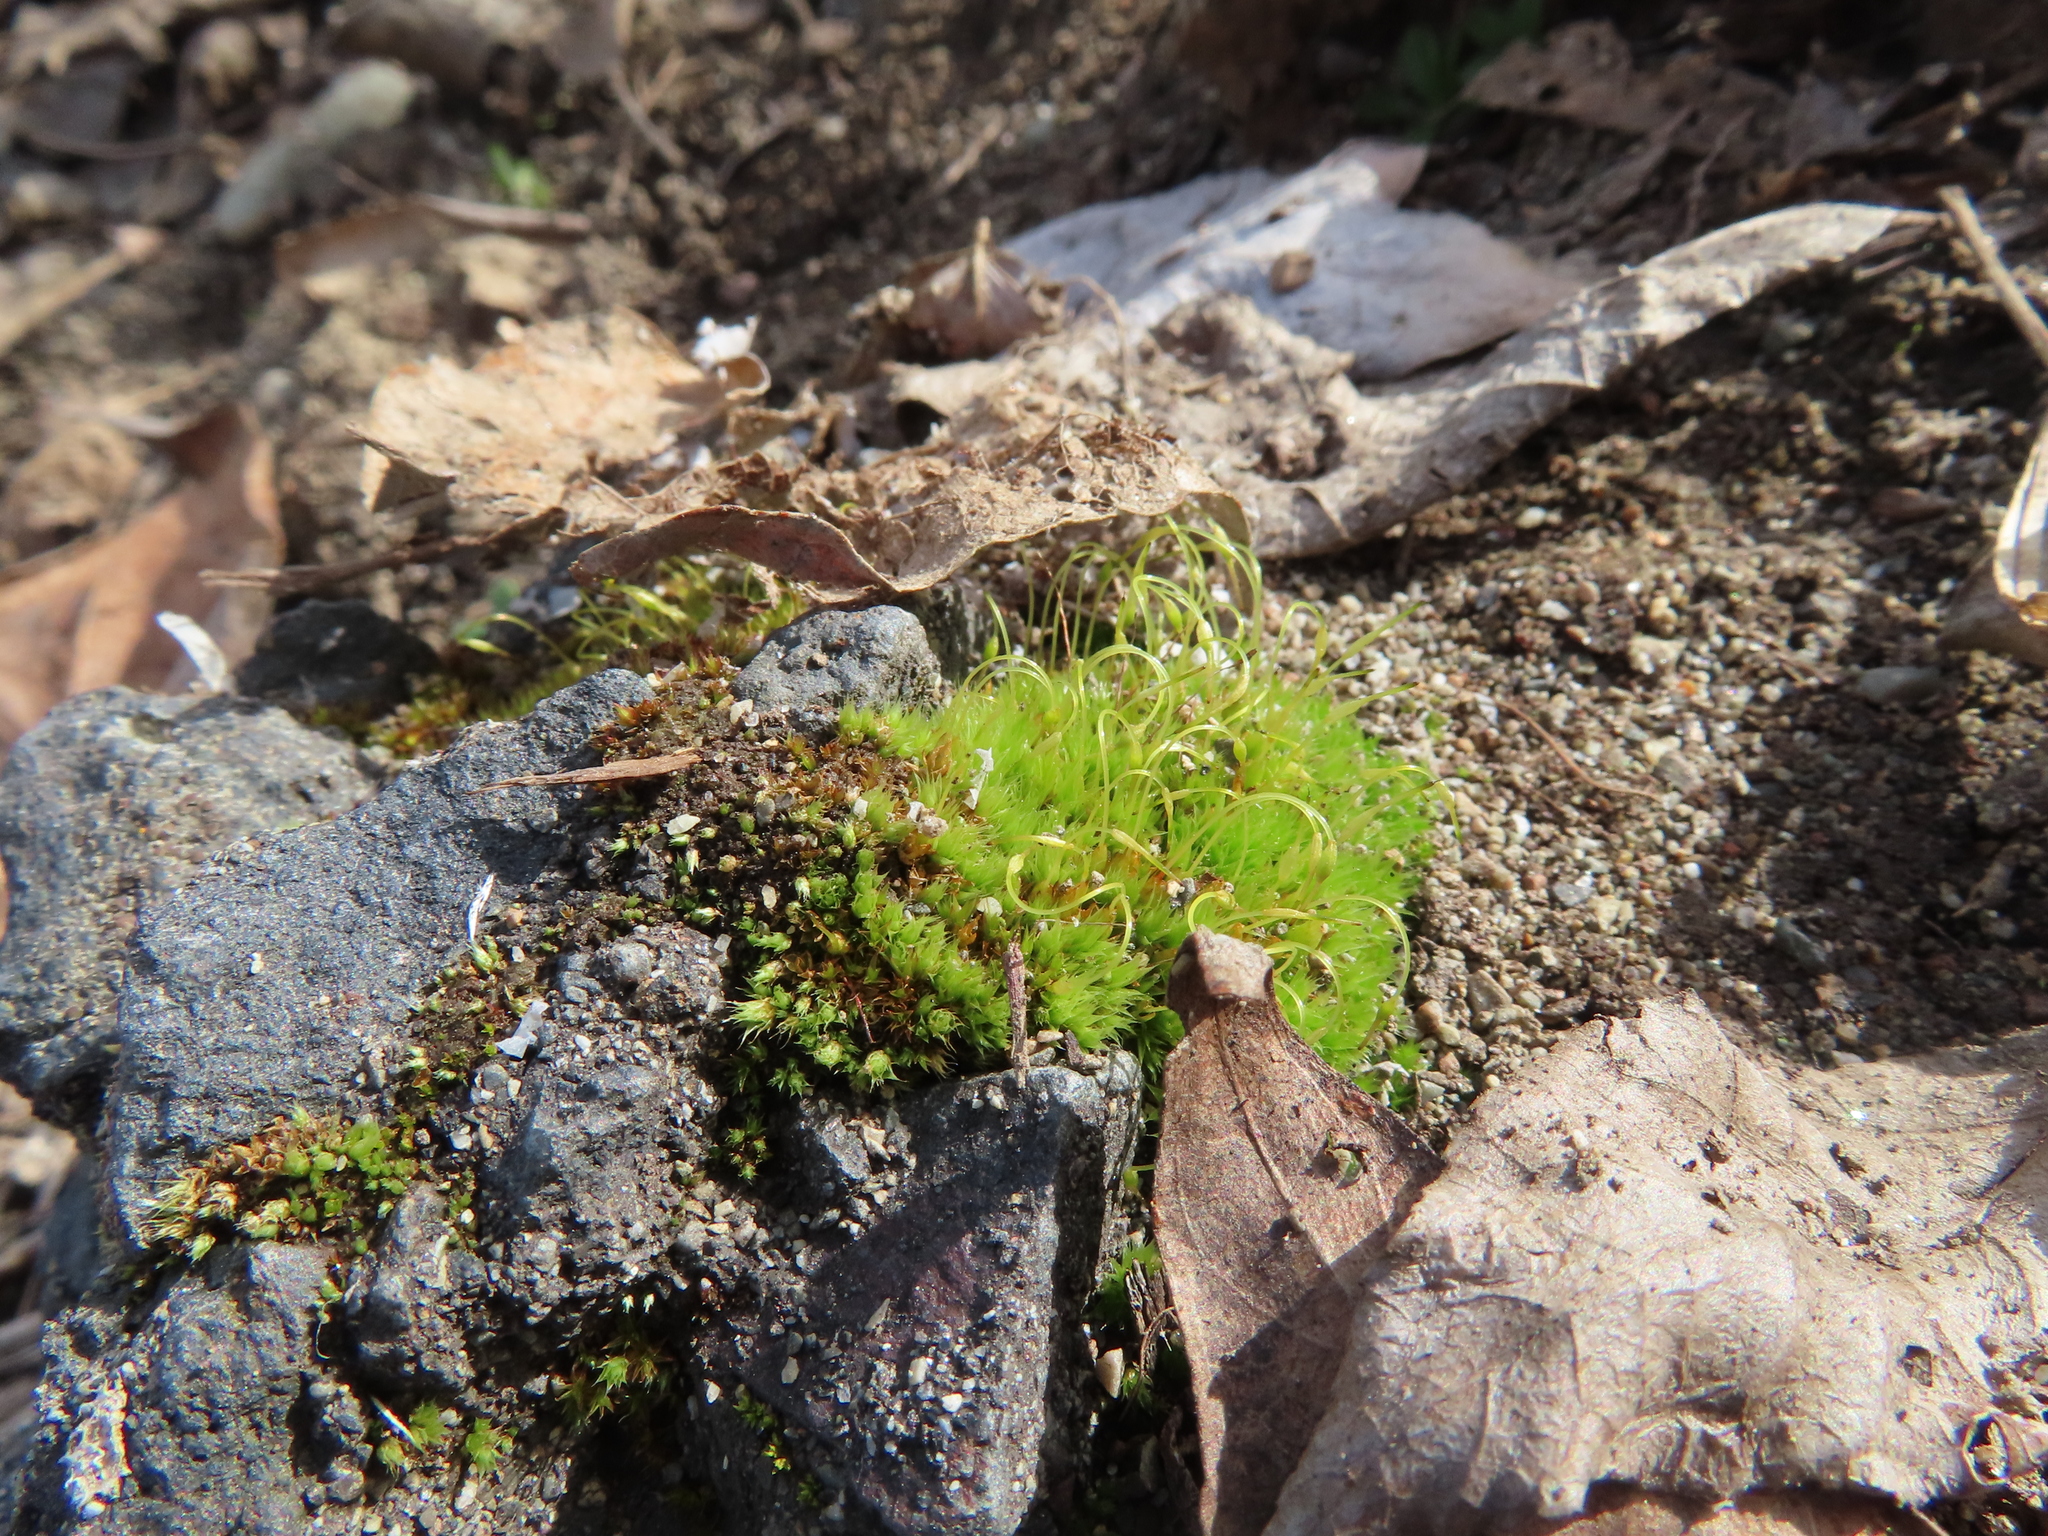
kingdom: Plantae
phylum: Bryophyta
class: Bryopsida
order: Funariales
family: Funariaceae
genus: Funaria
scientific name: Funaria hygrometrica
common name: Common cord moss
